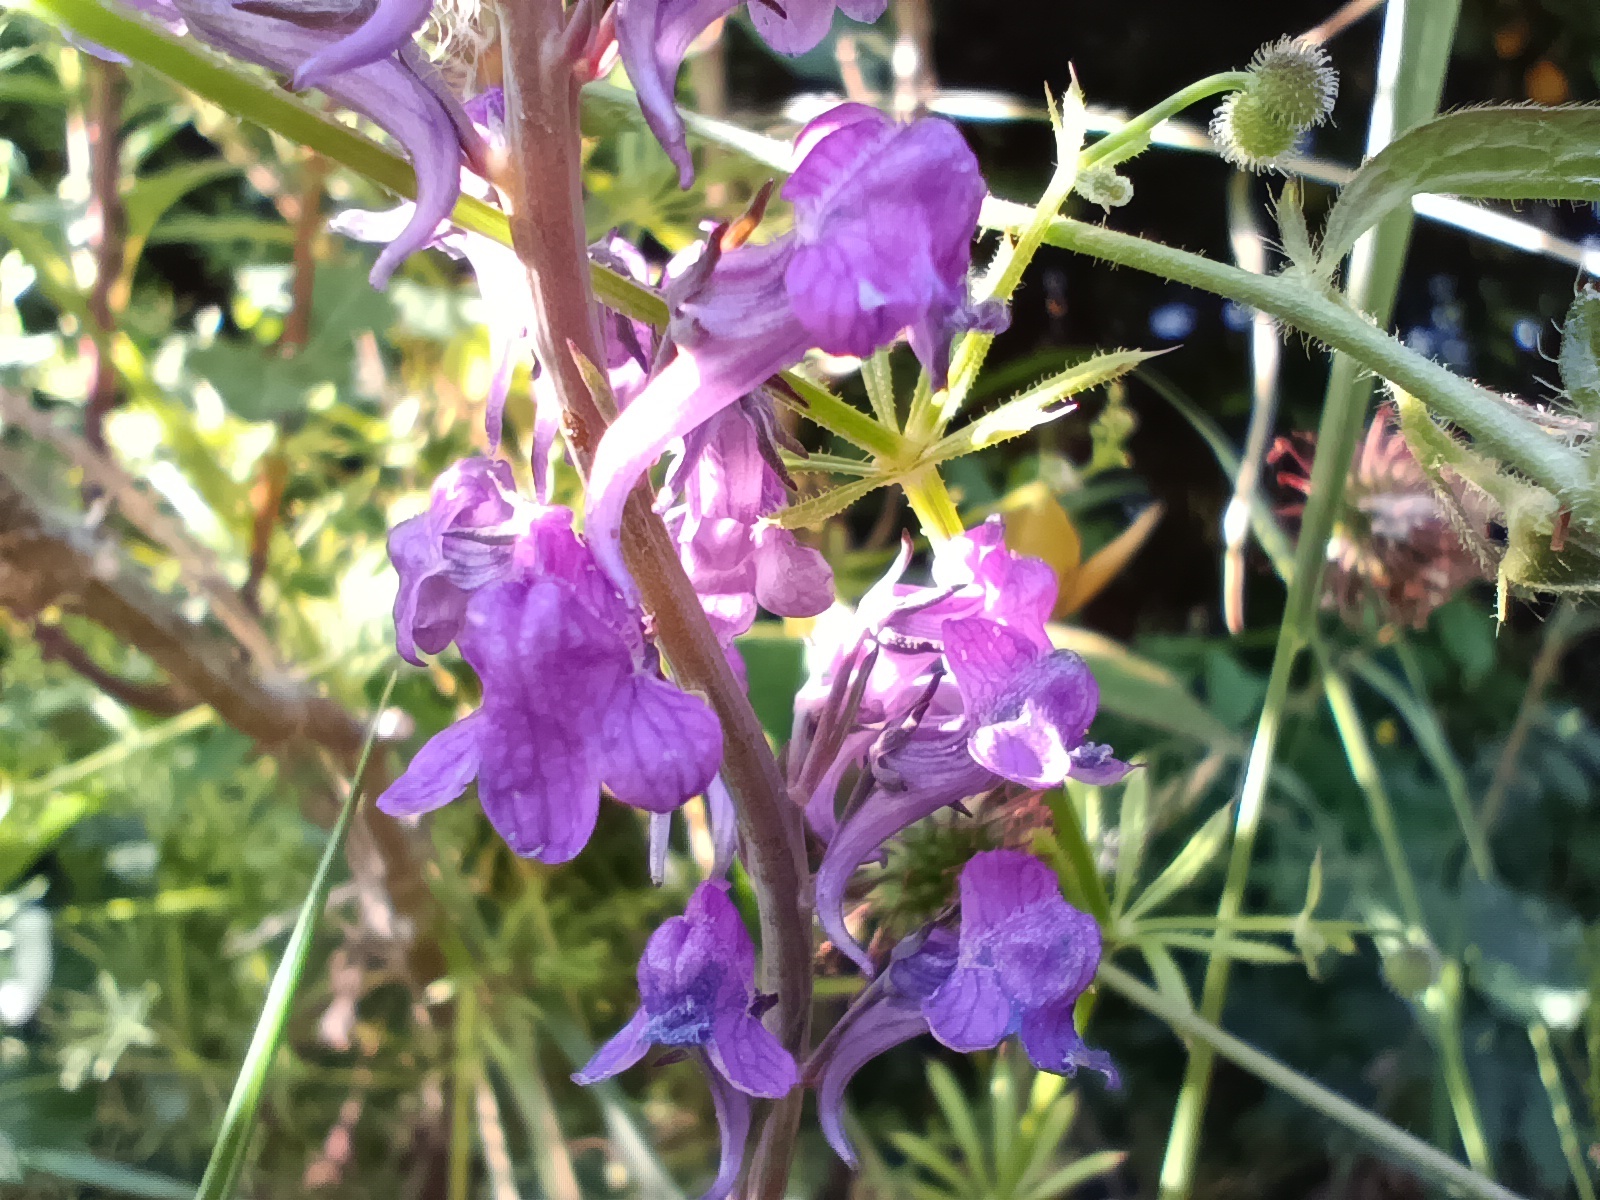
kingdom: Plantae
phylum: Tracheophyta
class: Magnoliopsida
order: Lamiales
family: Plantaginaceae
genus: Linaria
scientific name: Linaria purpurea
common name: Purple toadflax
